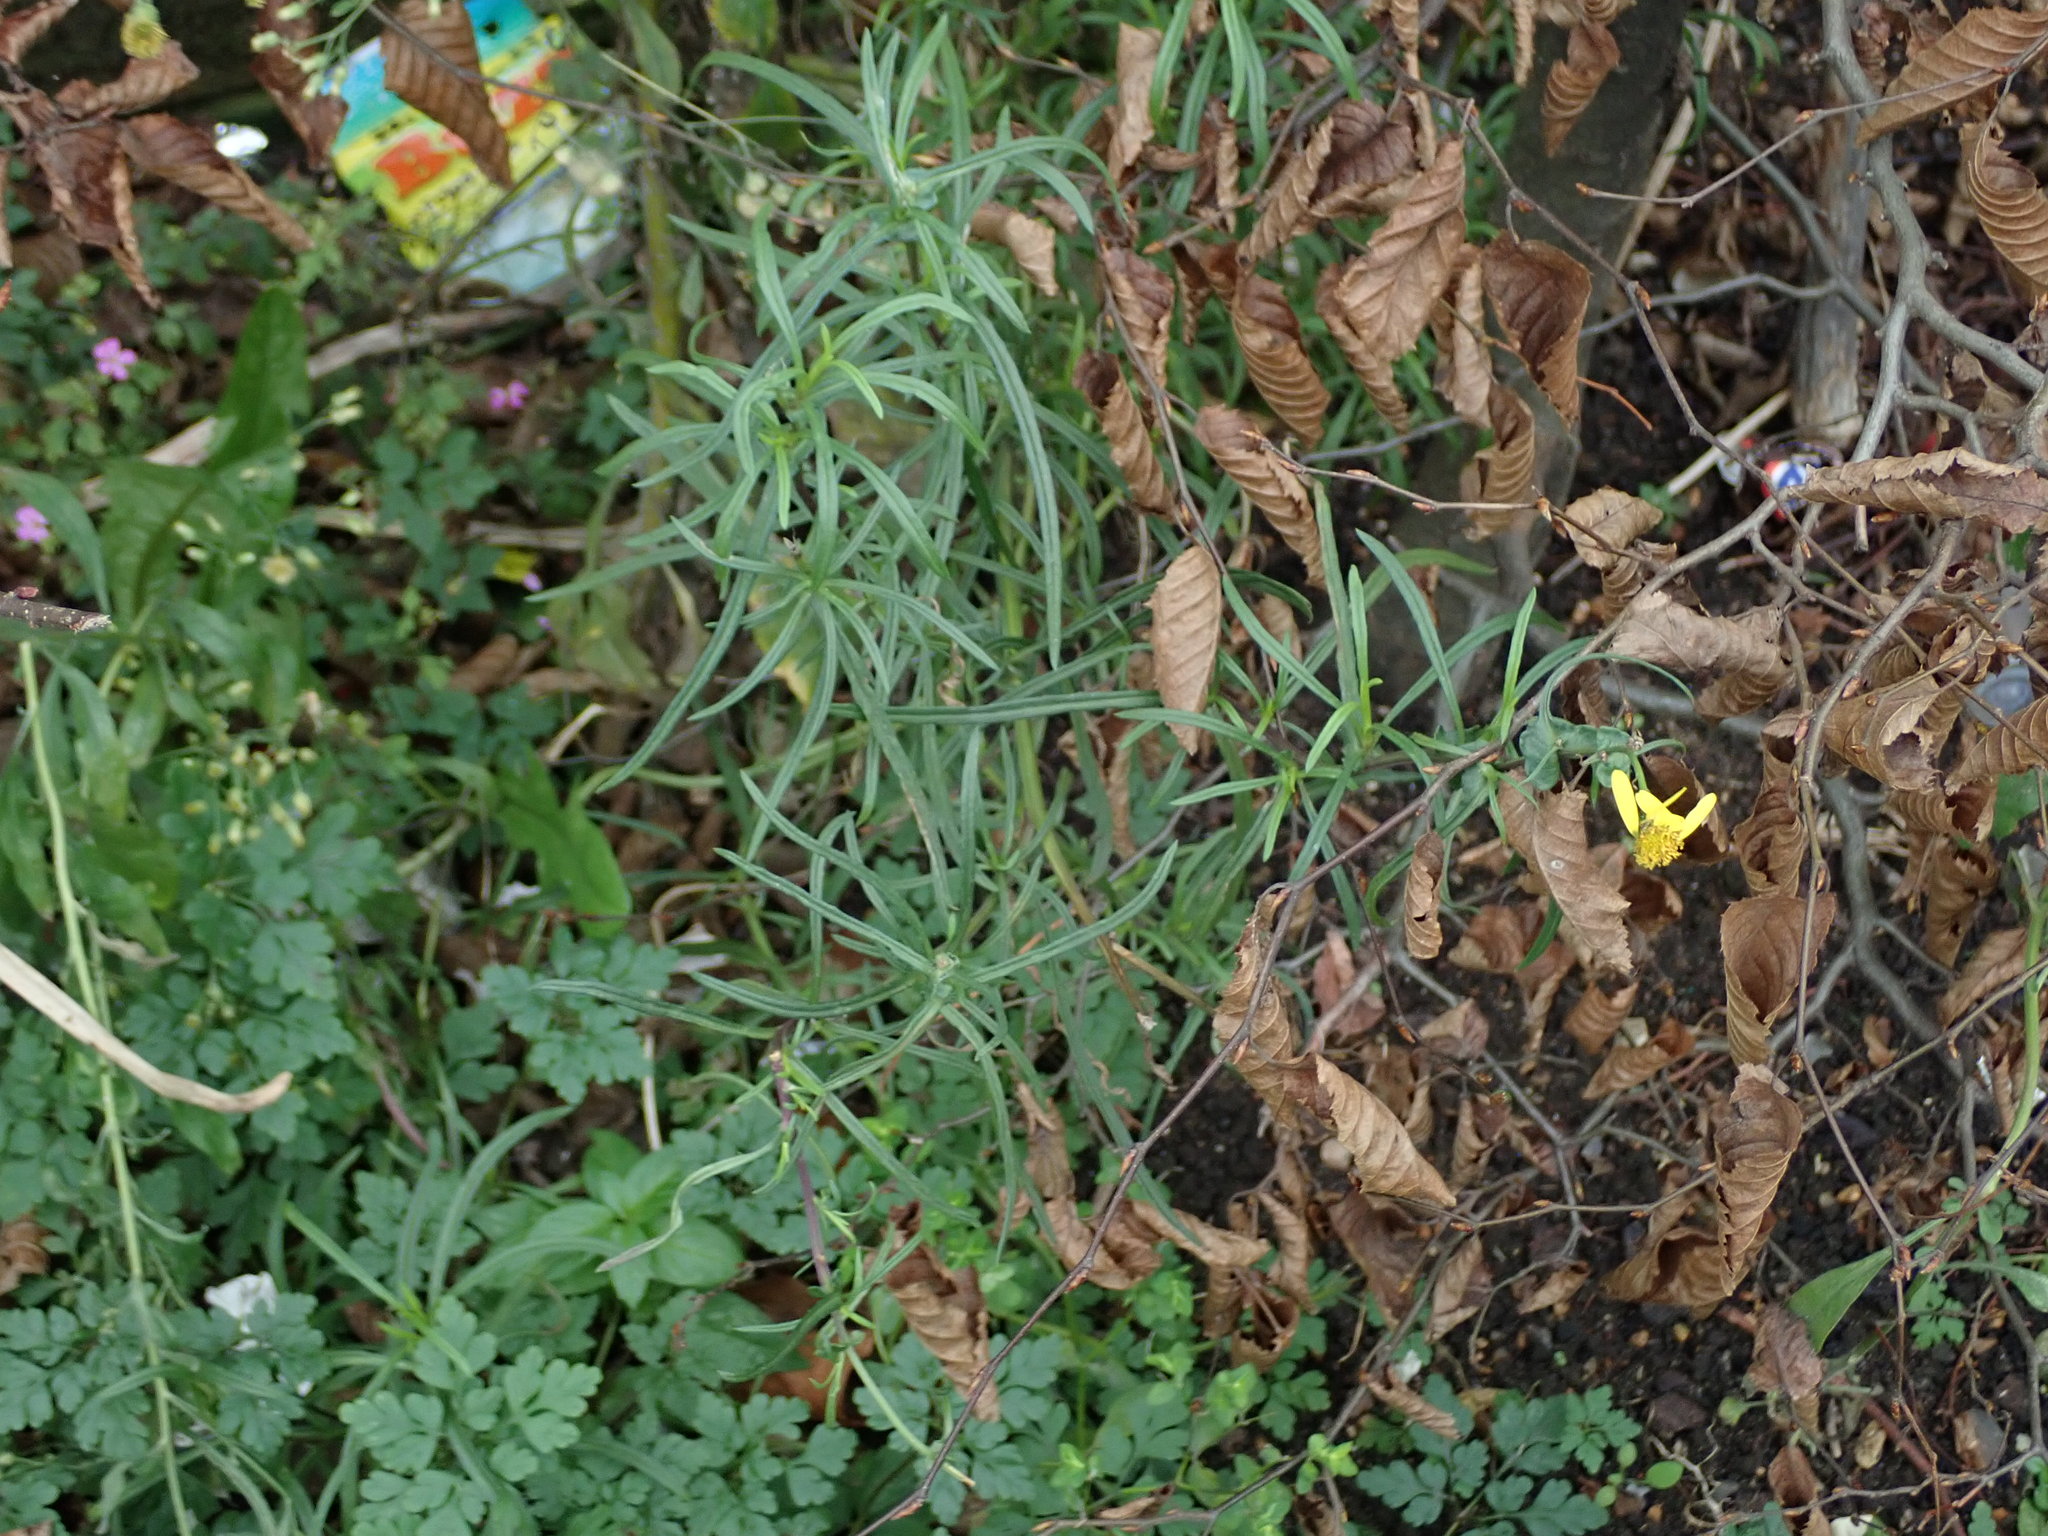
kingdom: Plantae
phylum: Tracheophyta
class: Magnoliopsida
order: Asterales
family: Asteraceae
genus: Senecio
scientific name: Senecio inaequidens
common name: Narrow-leaved ragwort
